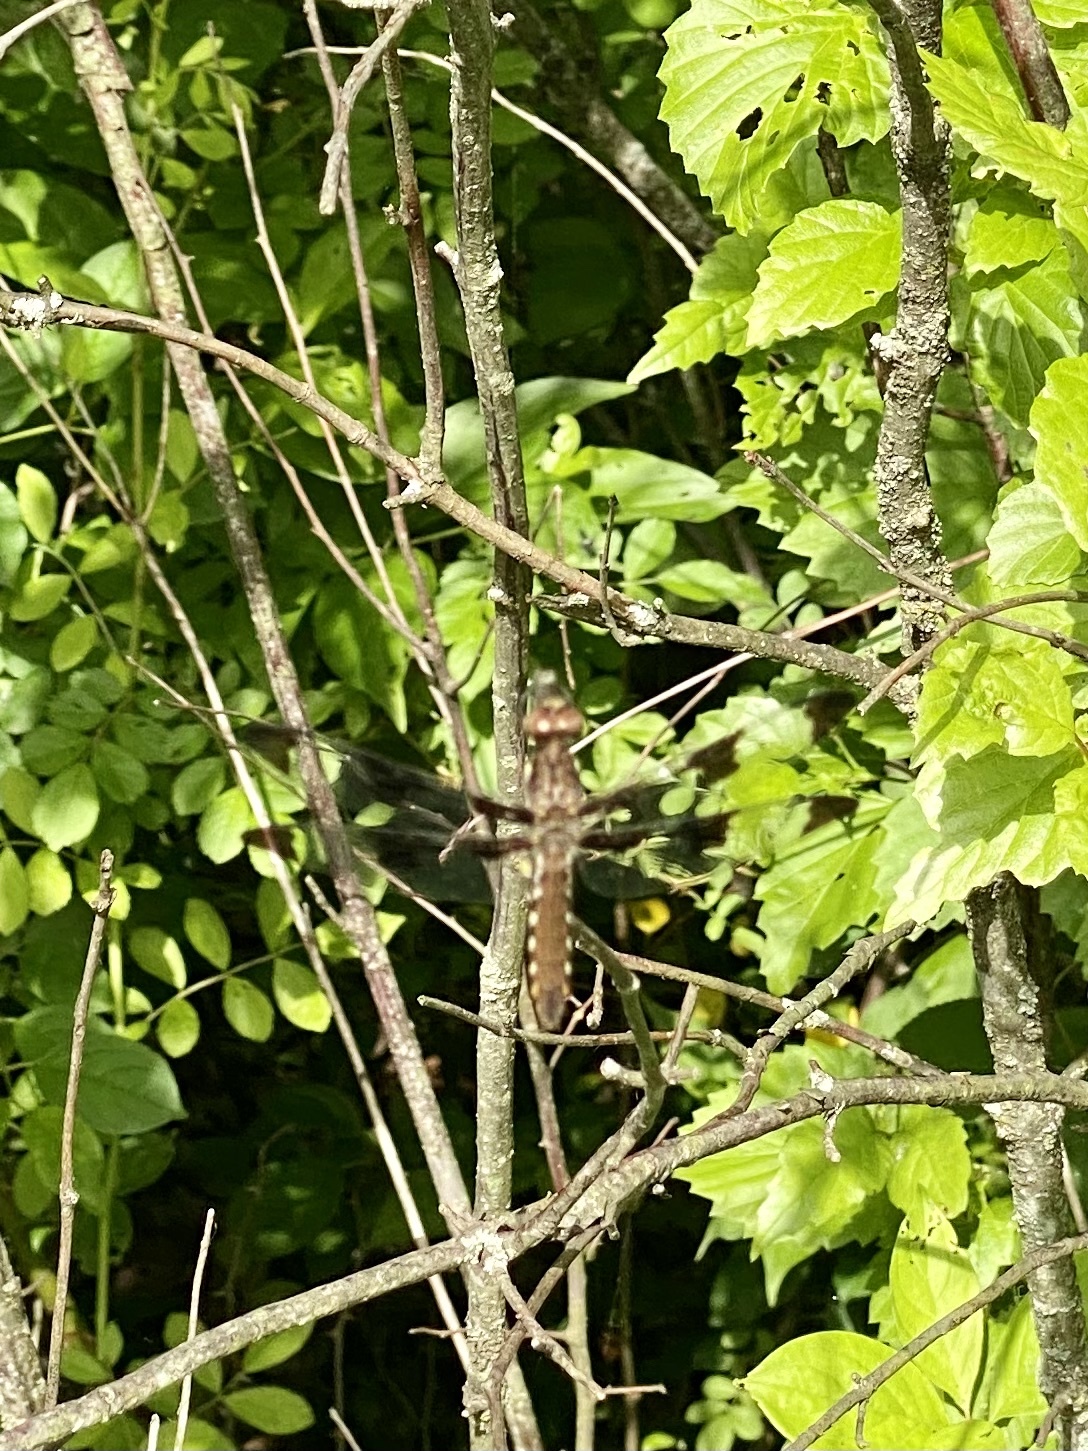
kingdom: Animalia
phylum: Arthropoda
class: Insecta
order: Odonata
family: Libellulidae
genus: Plathemis
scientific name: Plathemis lydia
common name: Common whitetail
